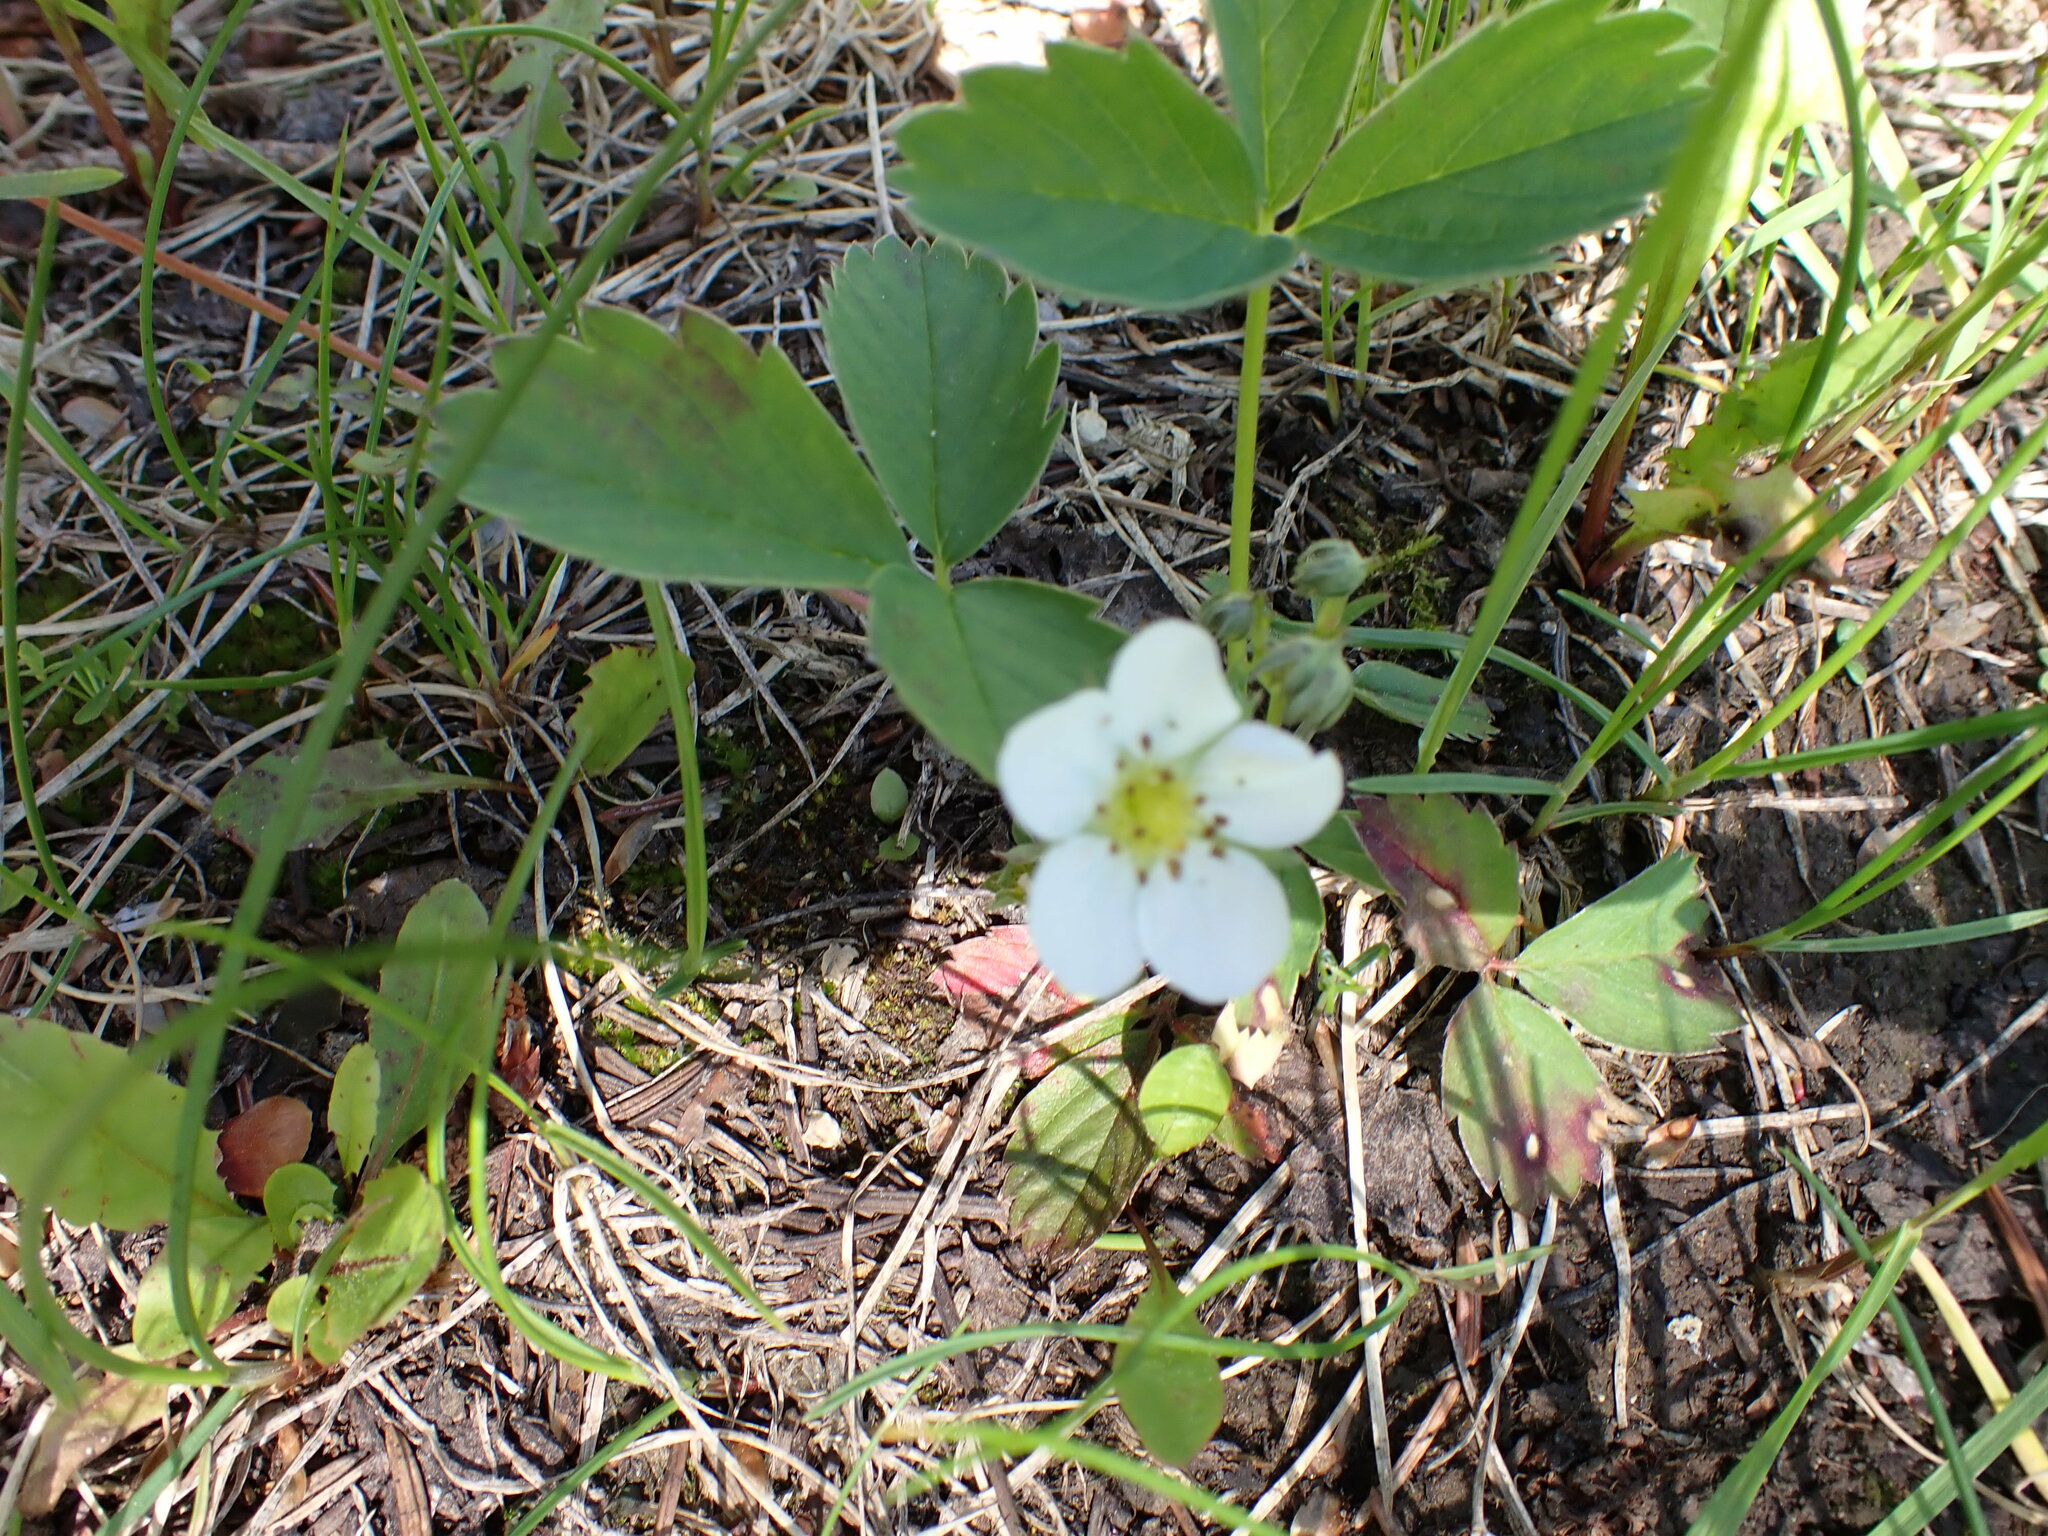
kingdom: Plantae
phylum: Tracheophyta
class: Magnoliopsida
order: Rosales
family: Rosaceae
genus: Fragaria
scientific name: Fragaria virginiana
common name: Thickleaved wild strawberry
